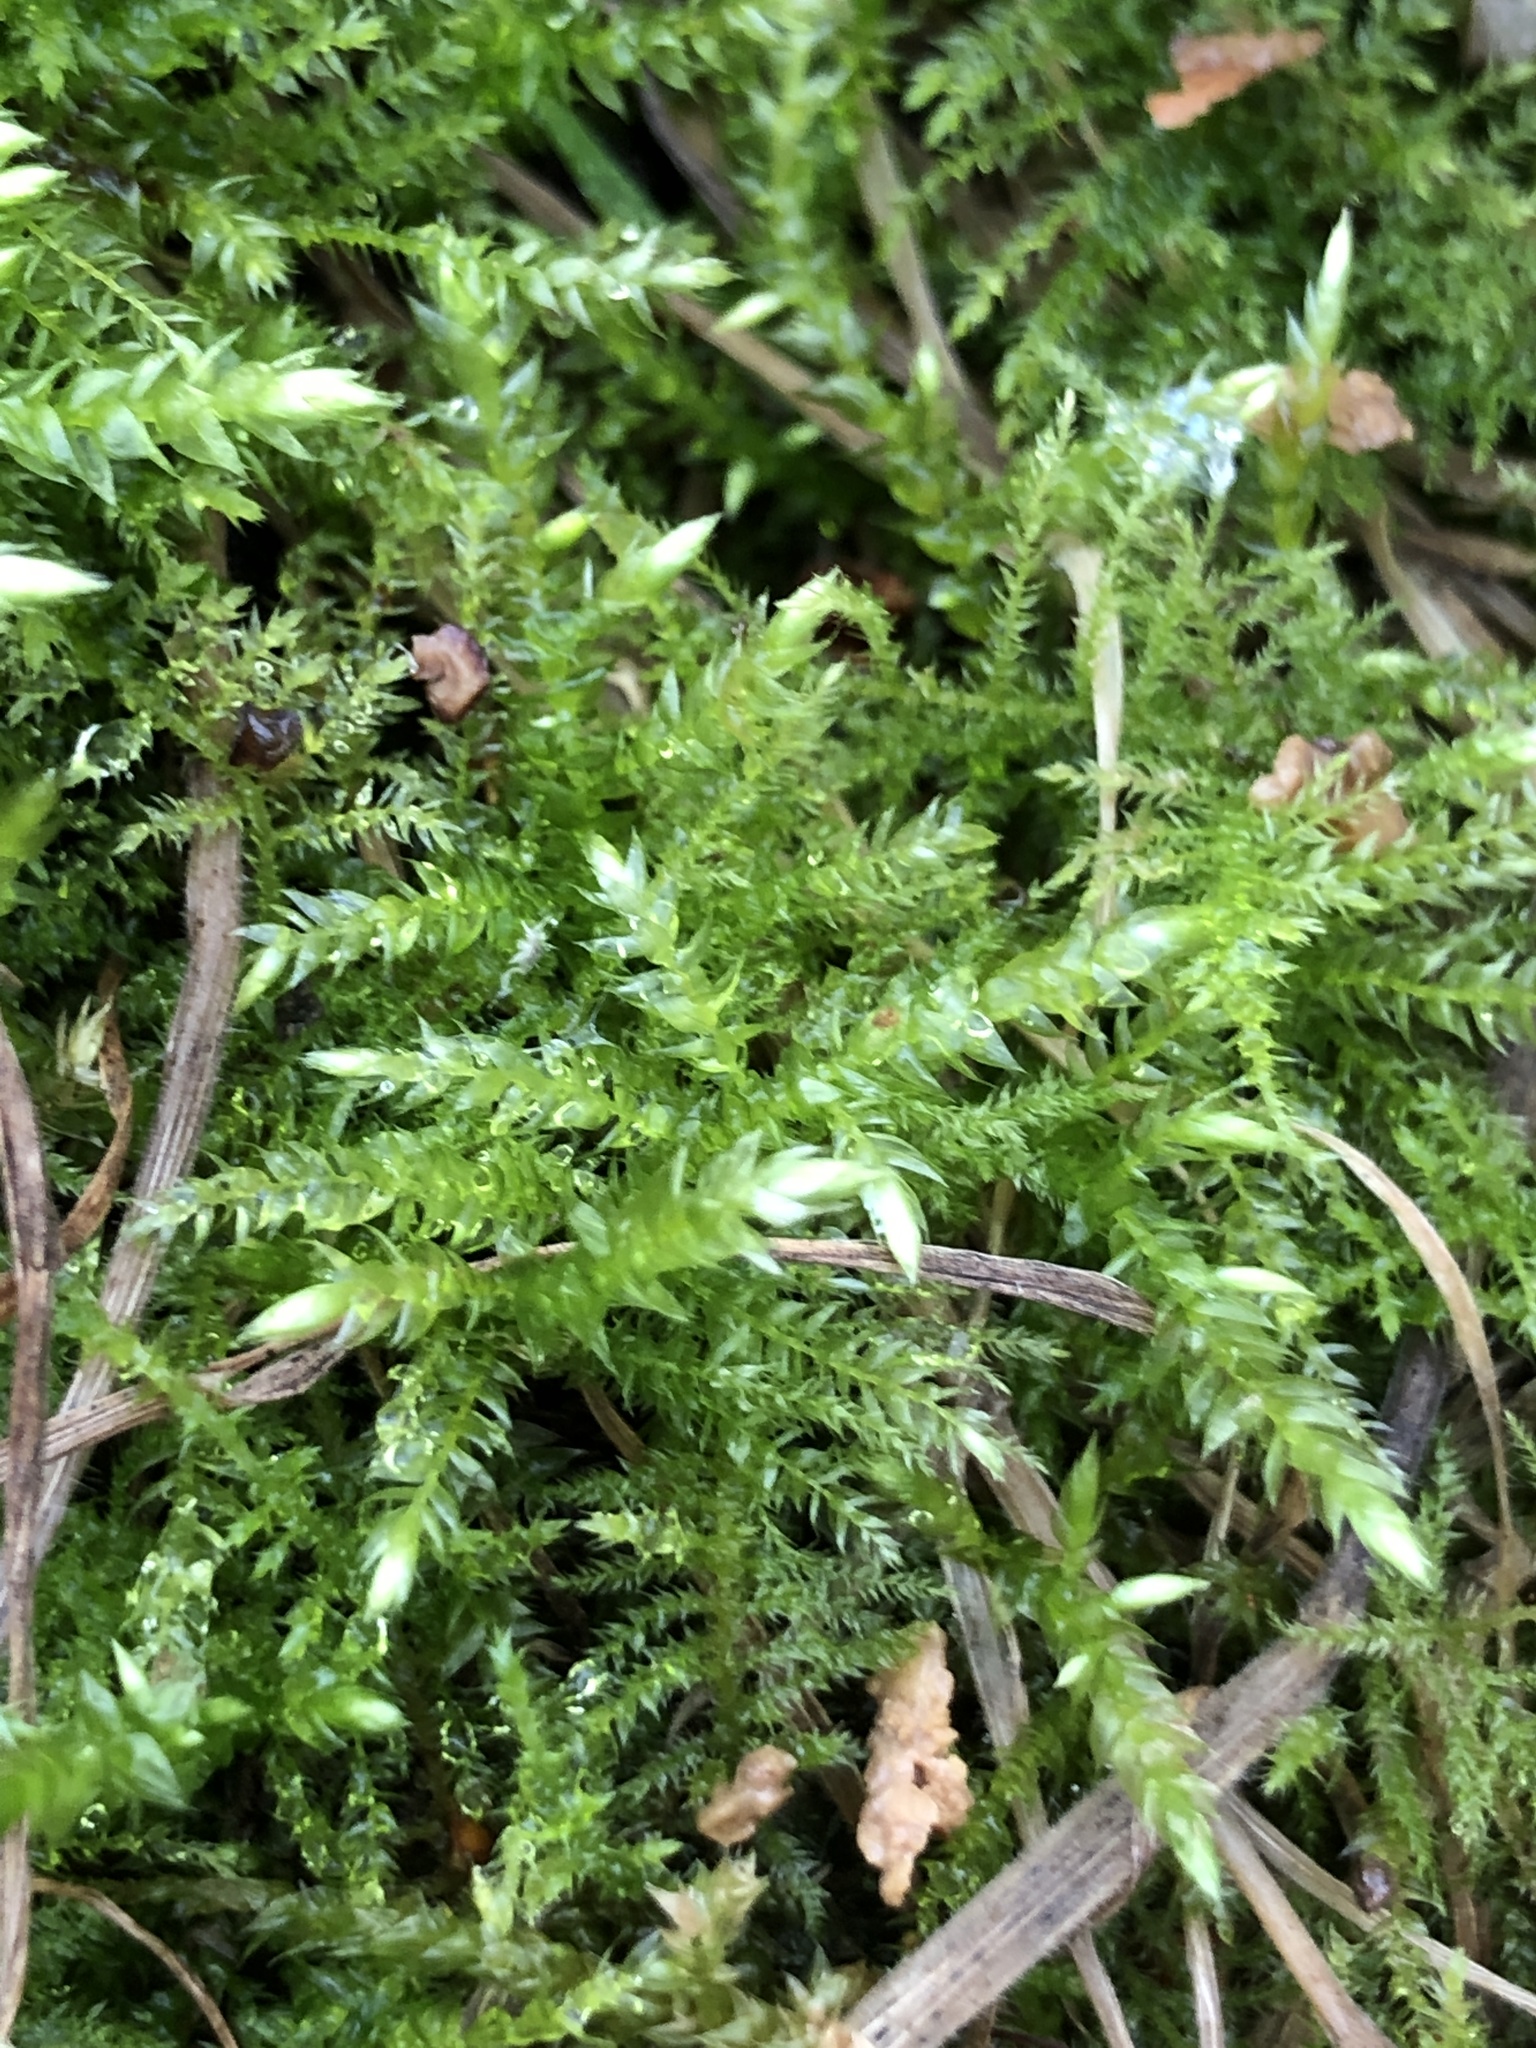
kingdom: Plantae
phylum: Bryophyta
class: Bryopsida
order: Hypnales
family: Brachytheciaceae
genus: Brachythecium
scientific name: Brachythecium rutabulum
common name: Rough-stalked feather-moss
